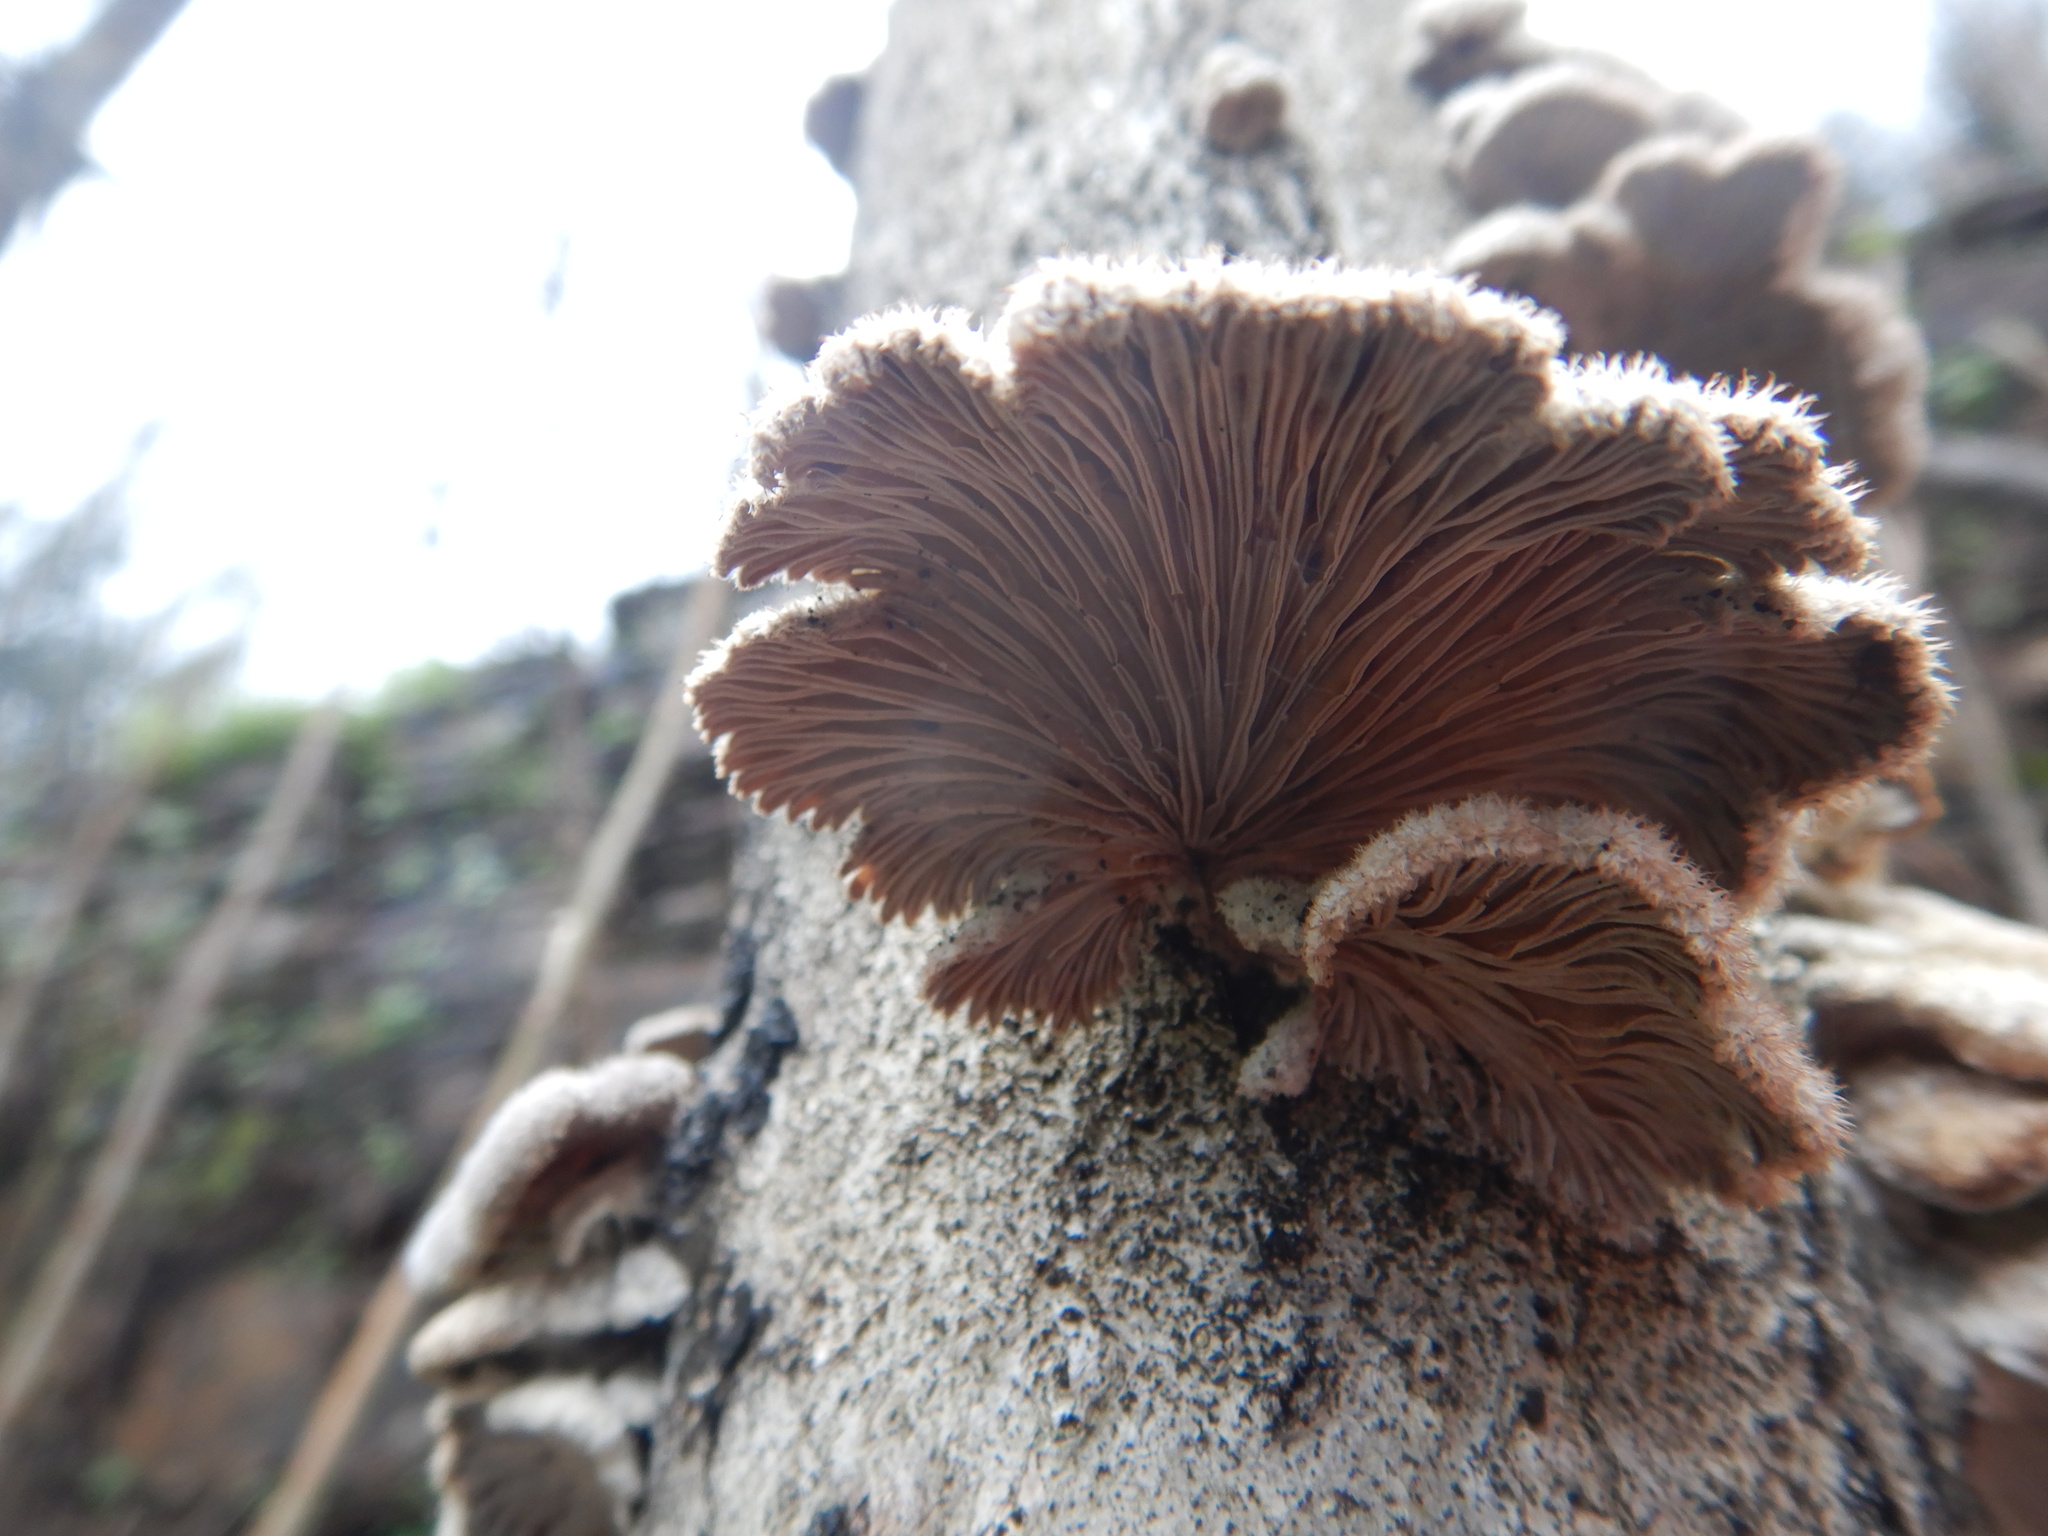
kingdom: Fungi
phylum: Basidiomycota
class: Agaricomycetes
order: Agaricales
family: Schizophyllaceae
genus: Schizophyllum
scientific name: Schizophyllum commune
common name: Common porecrust
